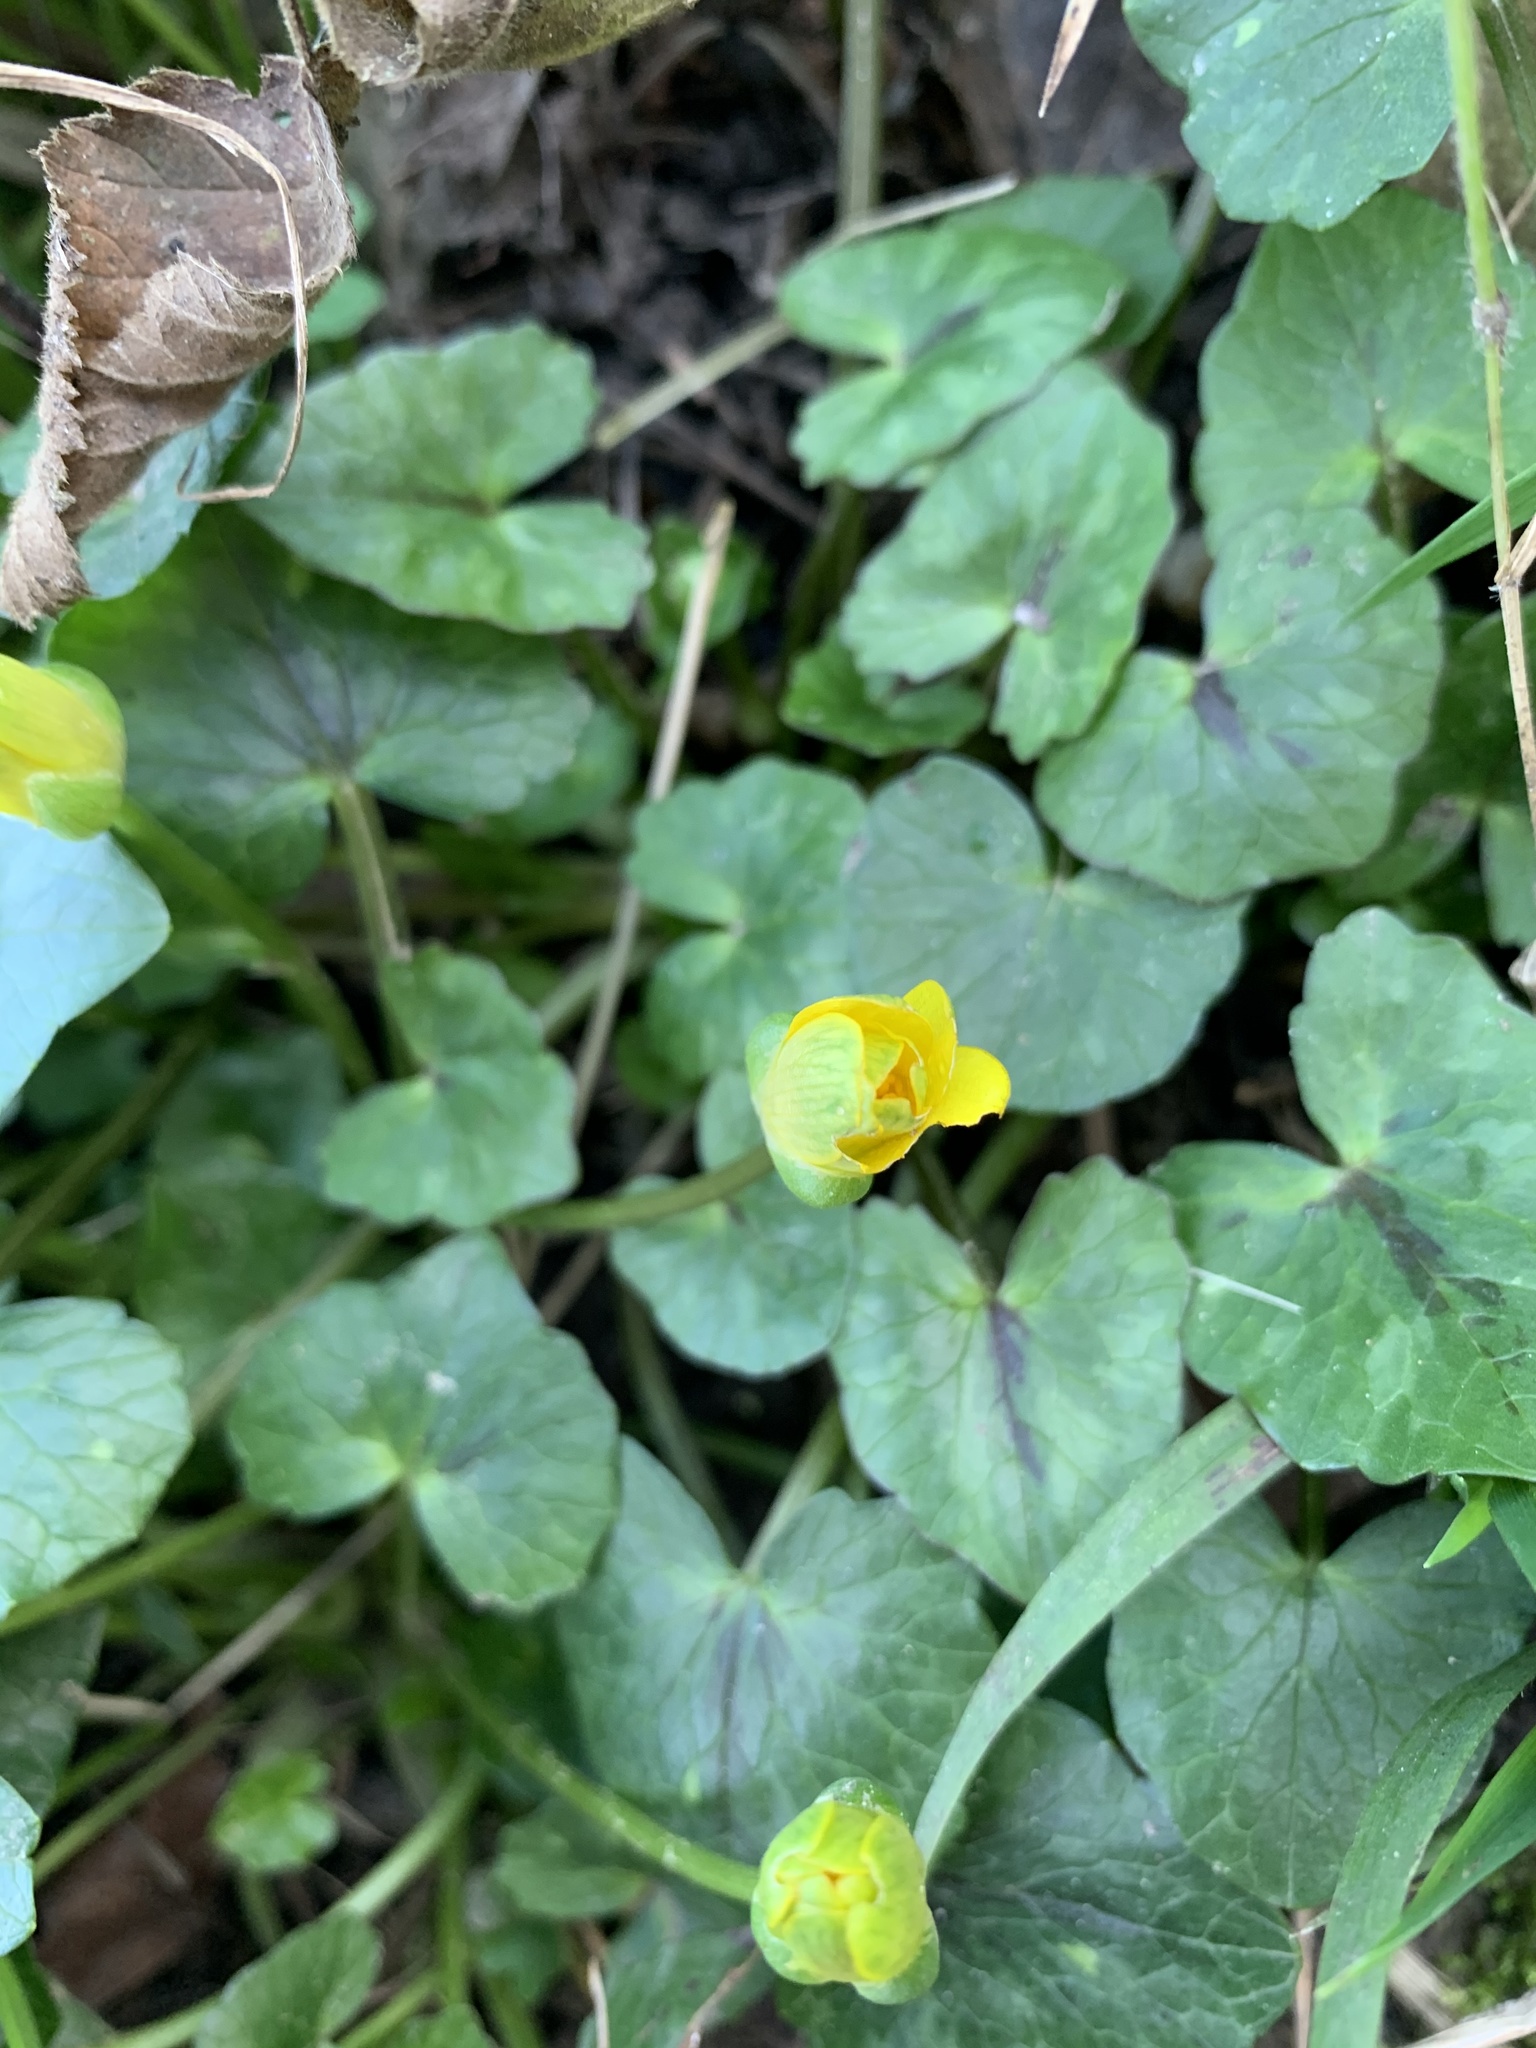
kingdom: Plantae
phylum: Tracheophyta
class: Magnoliopsida
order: Ranunculales
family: Ranunculaceae
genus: Ficaria
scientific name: Ficaria verna
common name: Lesser celandine
